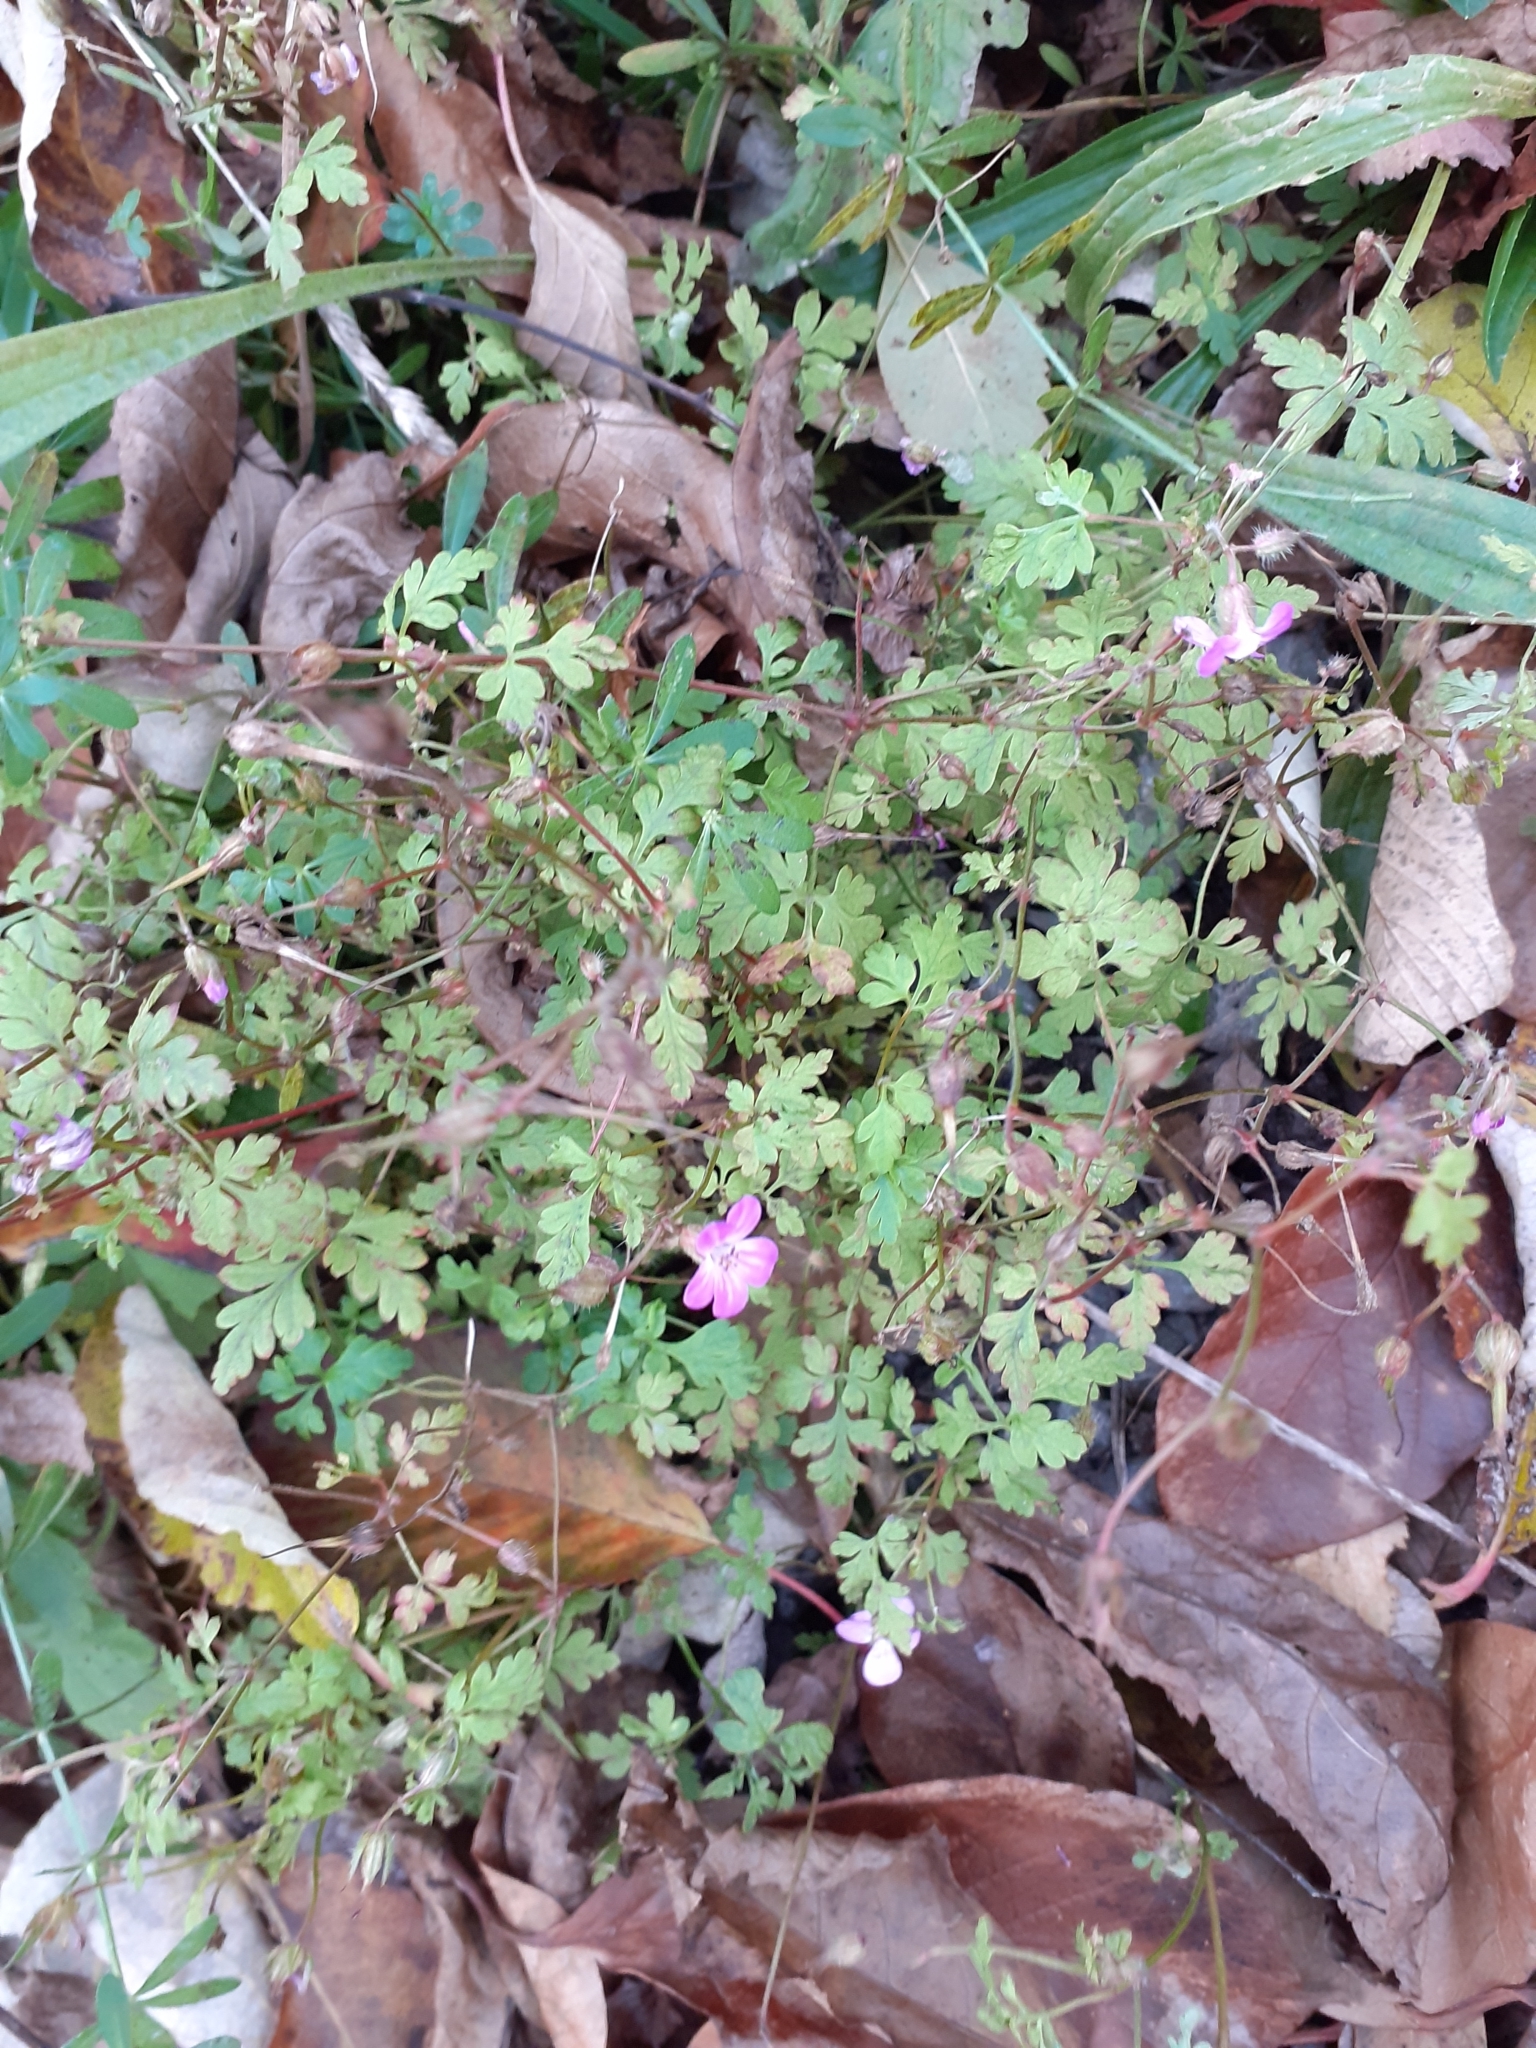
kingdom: Plantae
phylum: Tracheophyta
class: Magnoliopsida
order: Geraniales
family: Geraniaceae
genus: Geranium
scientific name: Geranium robertianum
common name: Herb-robert
